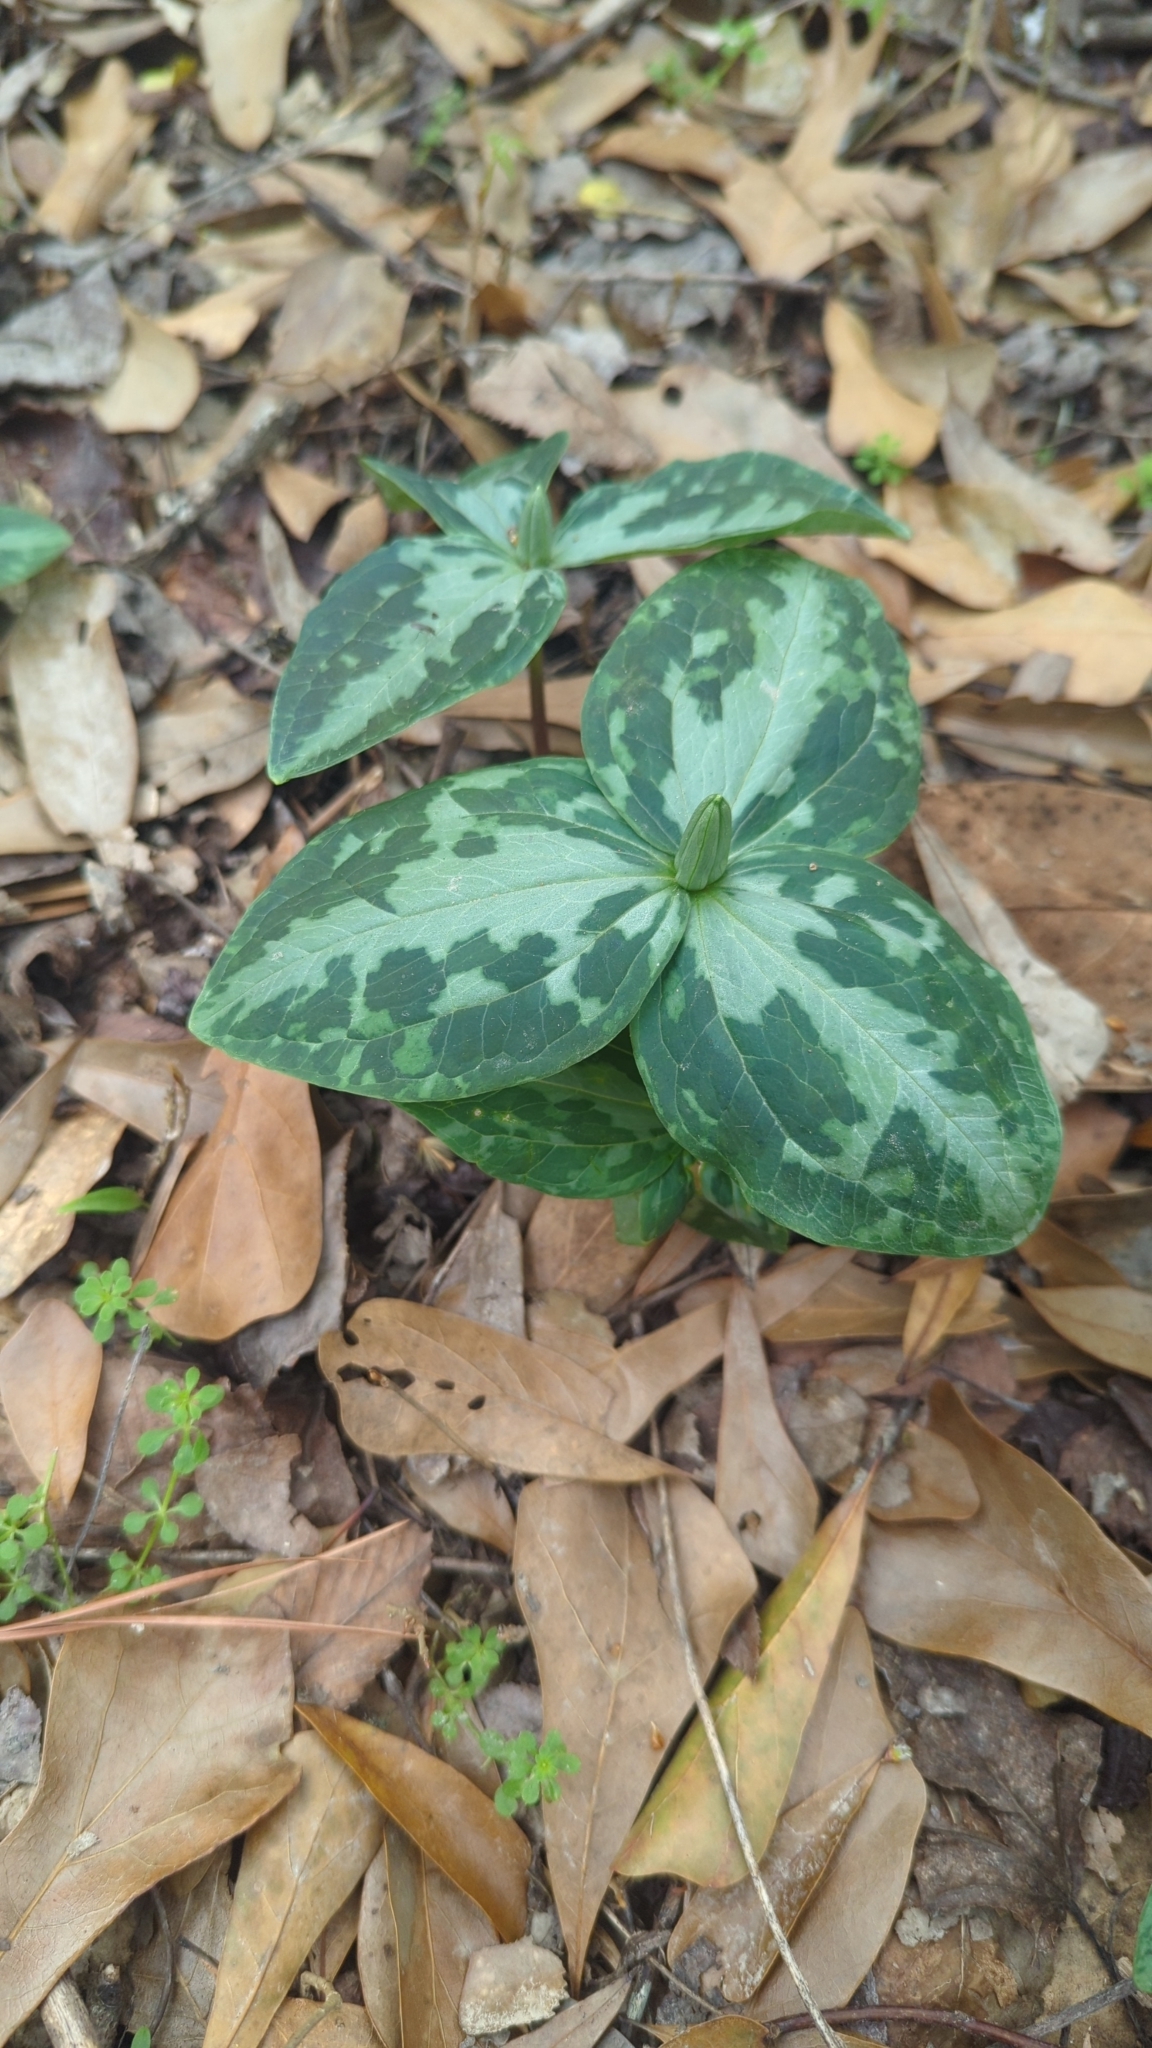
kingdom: Plantae
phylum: Tracheophyta
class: Liliopsida
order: Liliales
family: Melanthiaceae
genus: Trillium
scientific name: Trillium foetidissimum
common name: Mississippi river trillium
